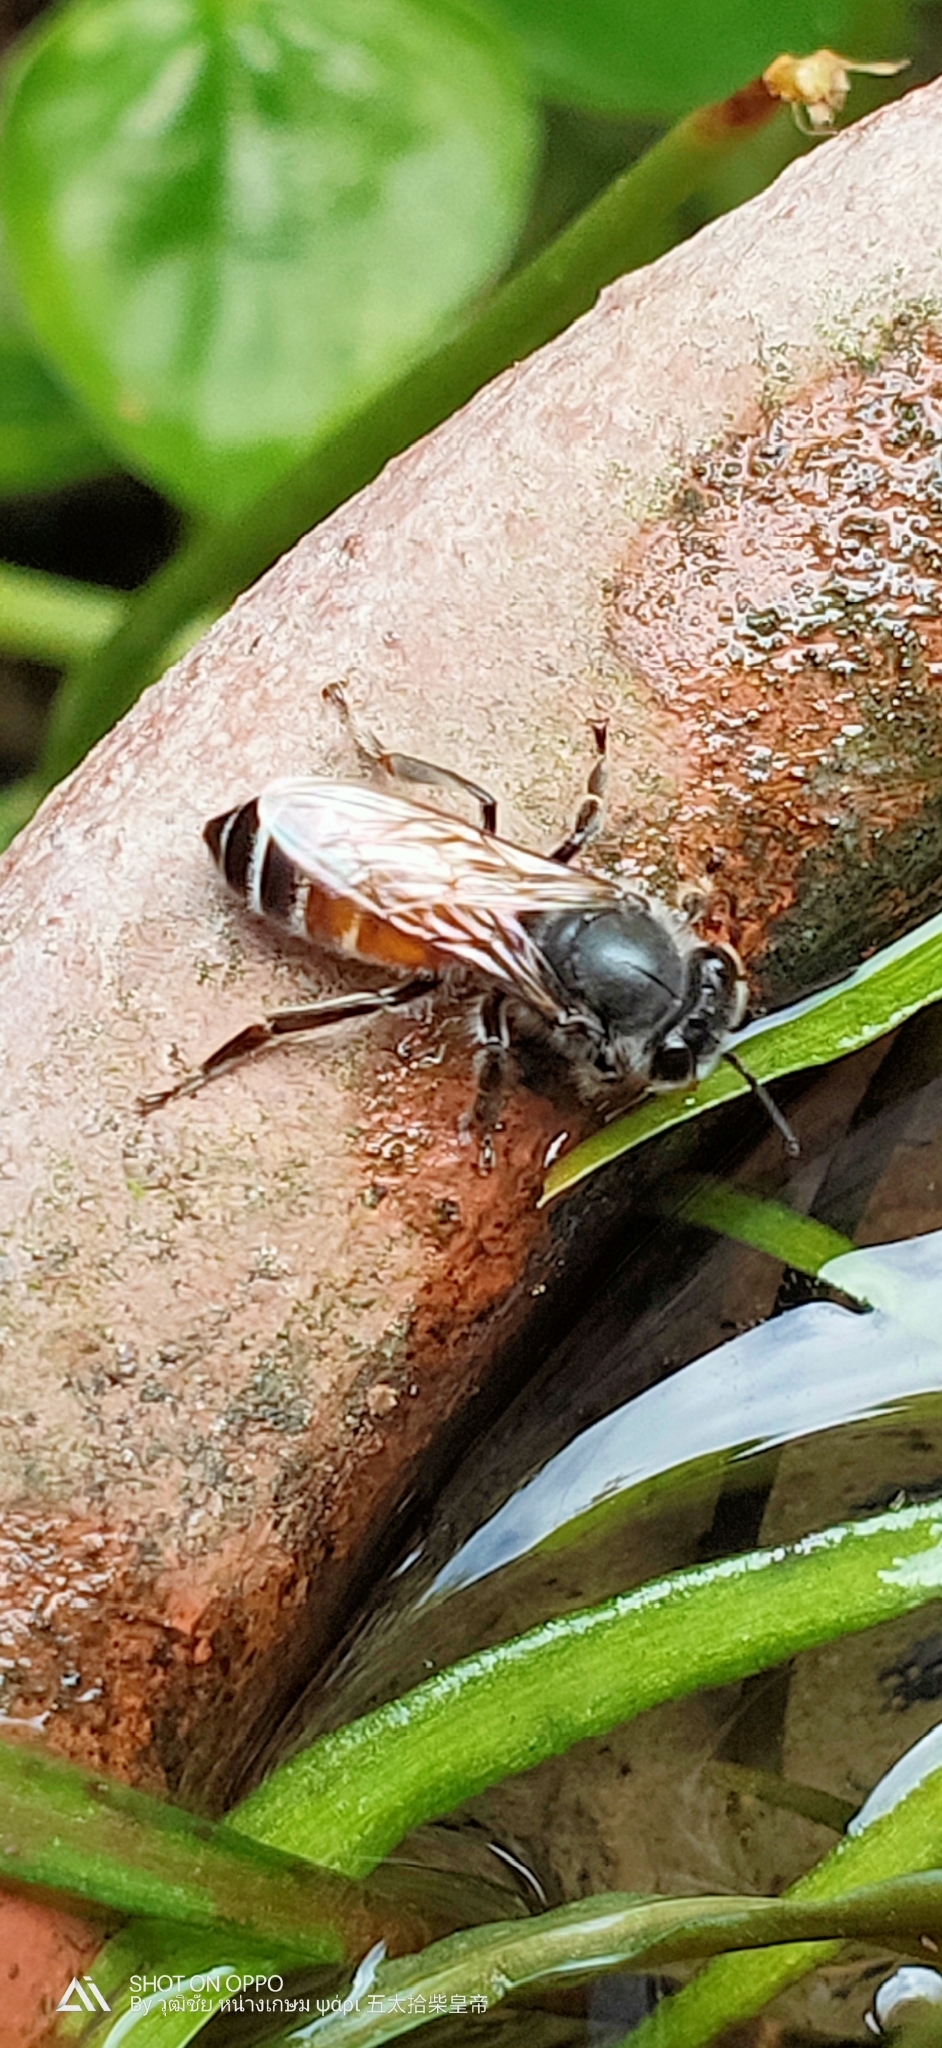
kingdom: Animalia
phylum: Arthropoda
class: Insecta
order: Hymenoptera
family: Apidae
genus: Apis
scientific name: Apis florea
